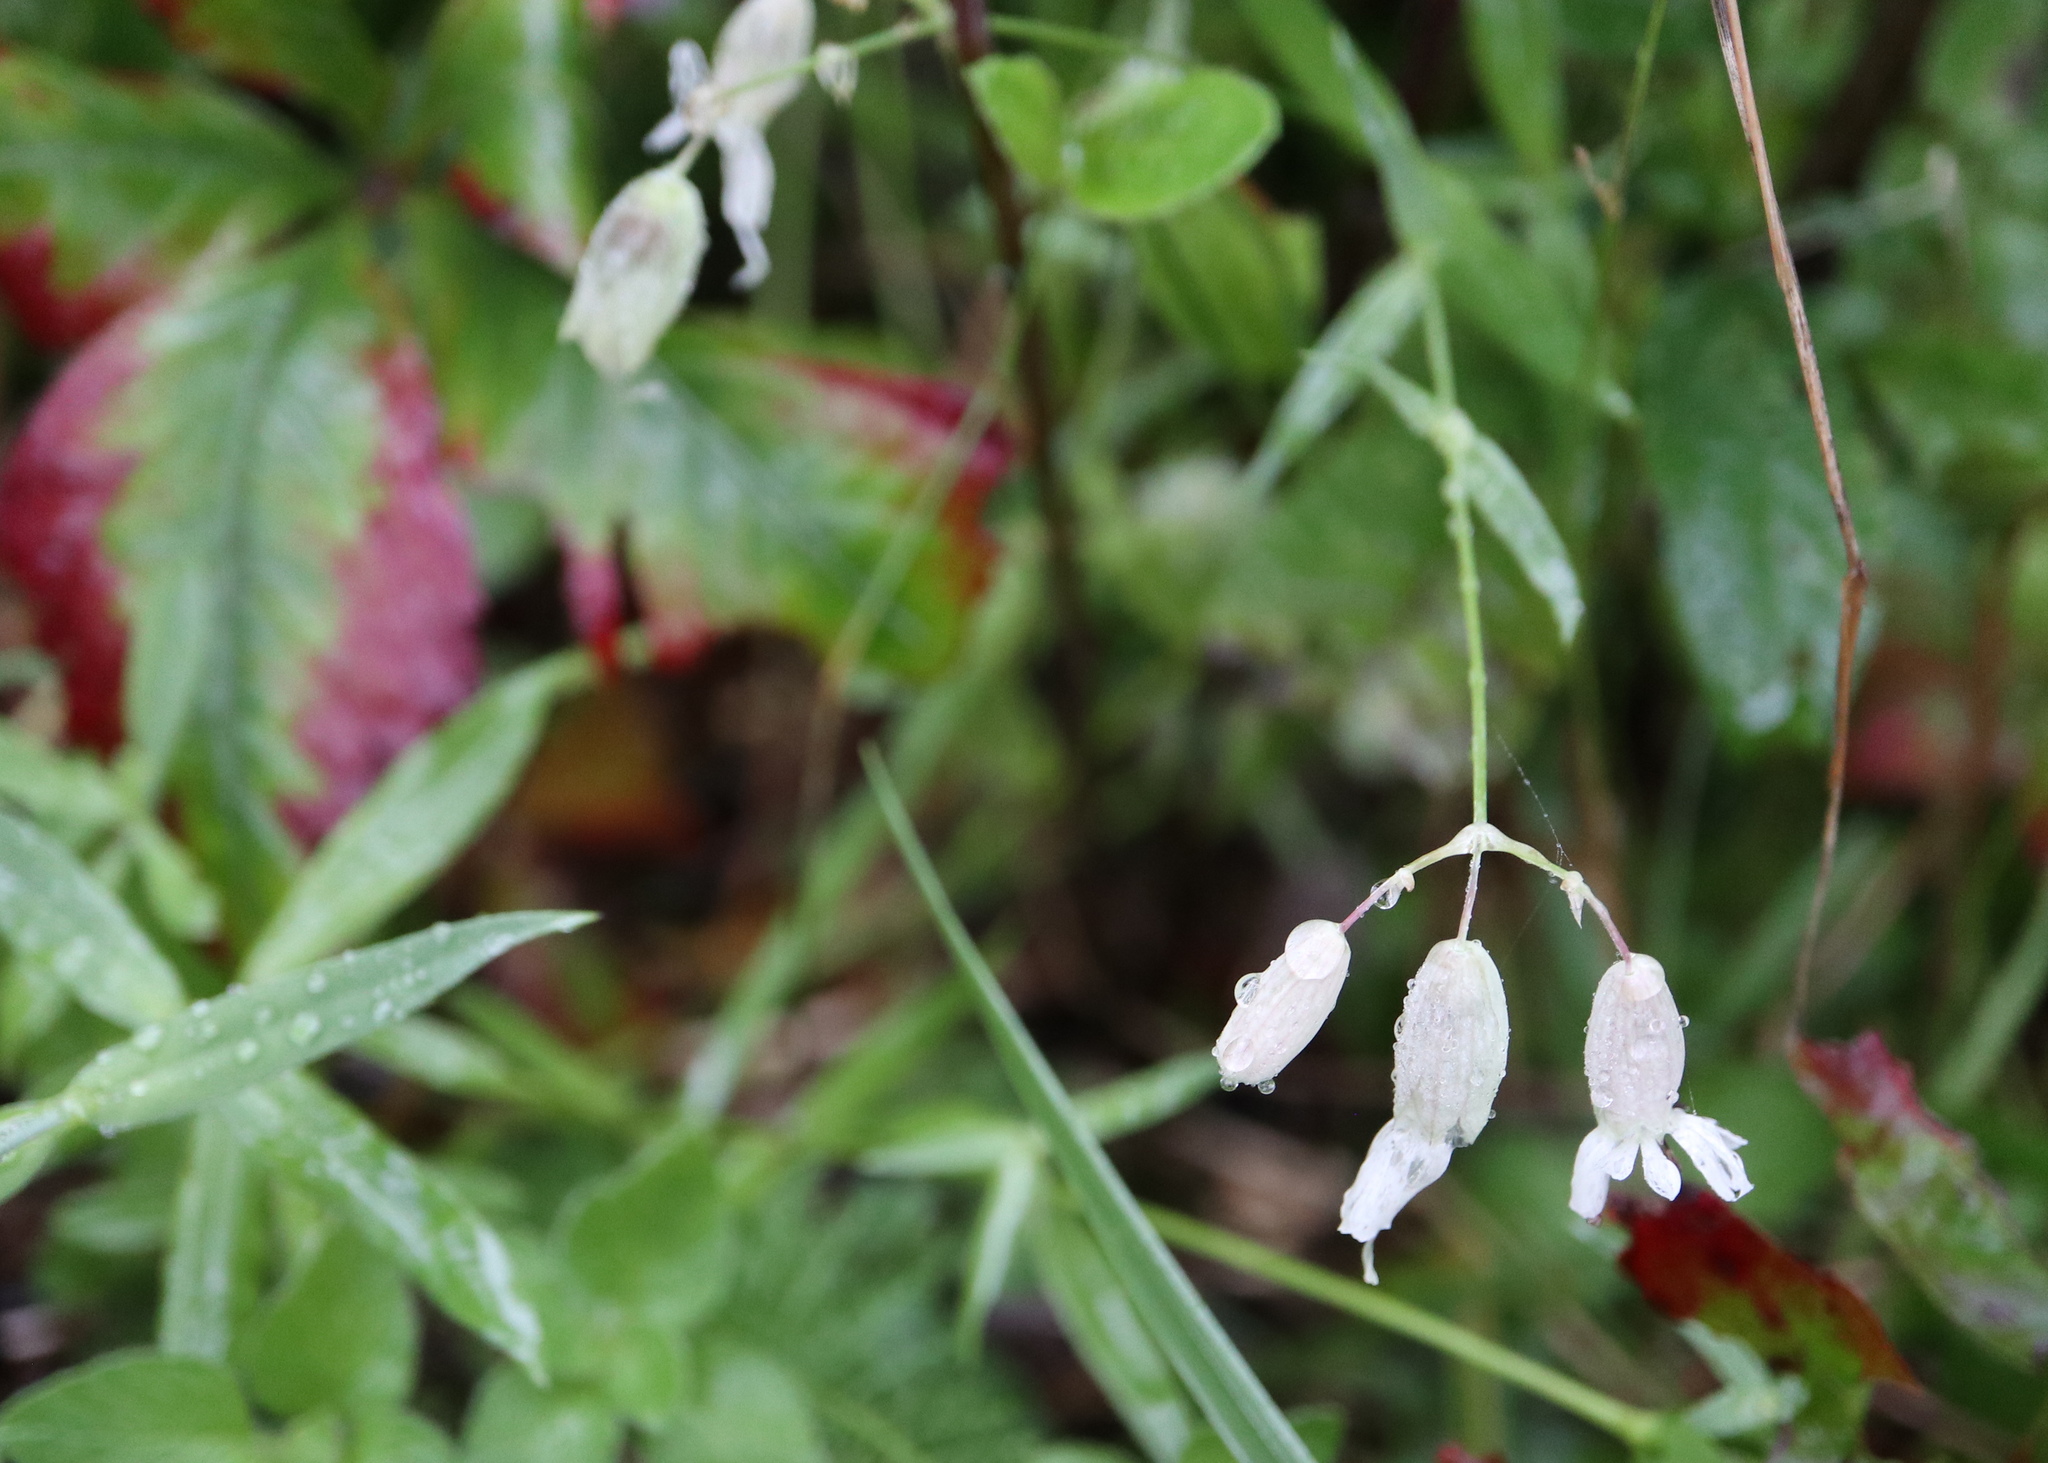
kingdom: Plantae
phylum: Tracheophyta
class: Magnoliopsida
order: Caryophyllales
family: Caryophyllaceae
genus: Silene
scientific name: Silene vulgaris
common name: Bladder campion
